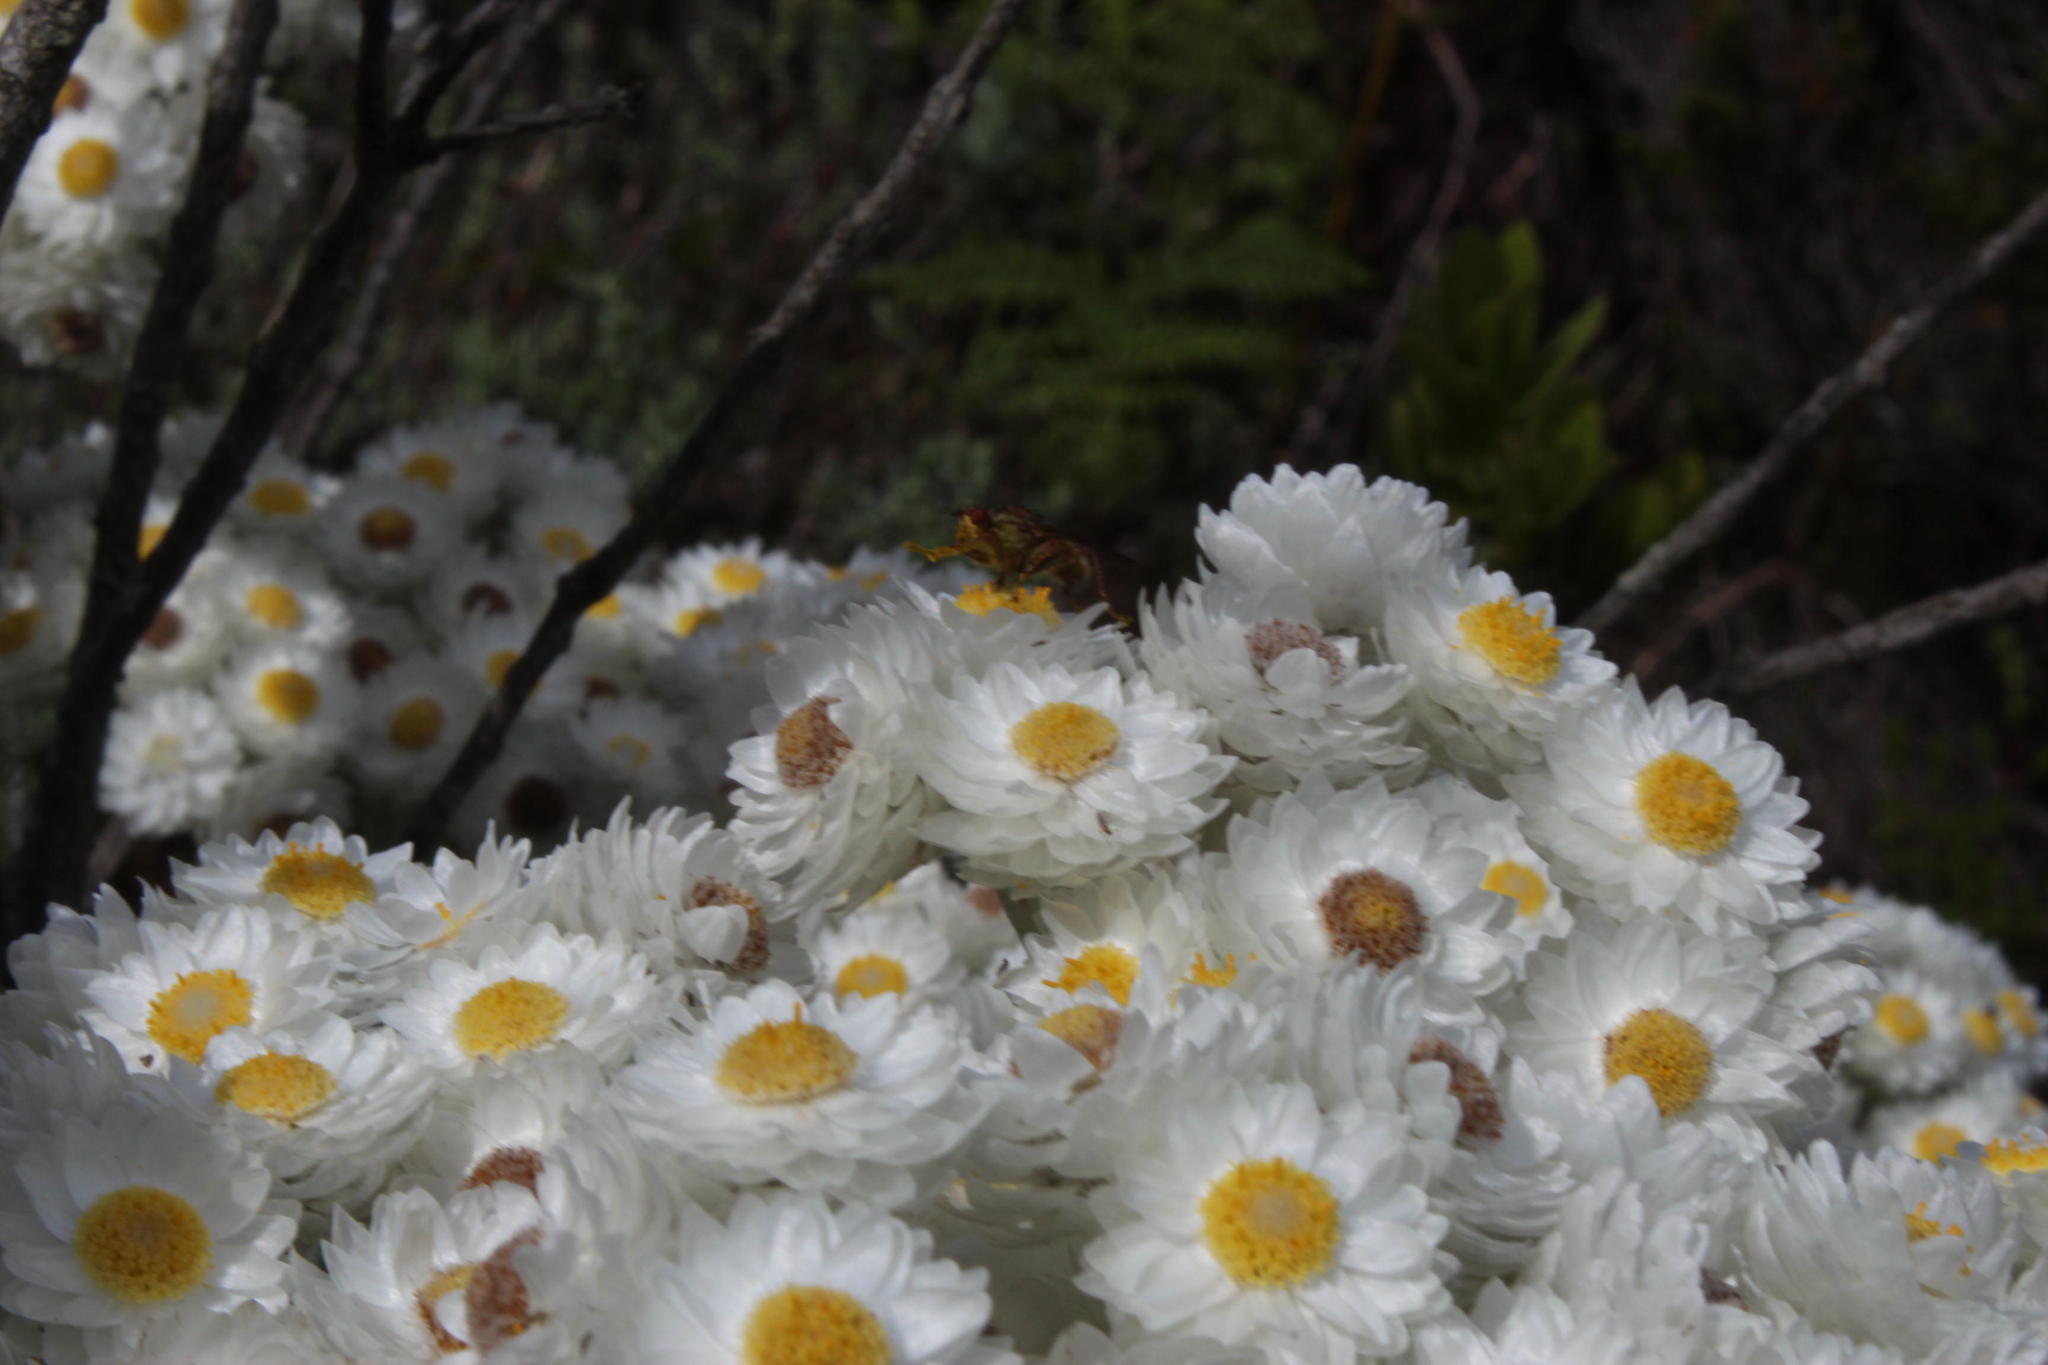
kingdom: Plantae
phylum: Tracheophyta
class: Magnoliopsida
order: Asterales
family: Asteraceae
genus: Helichrysum
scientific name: Helichrysum fruticans
